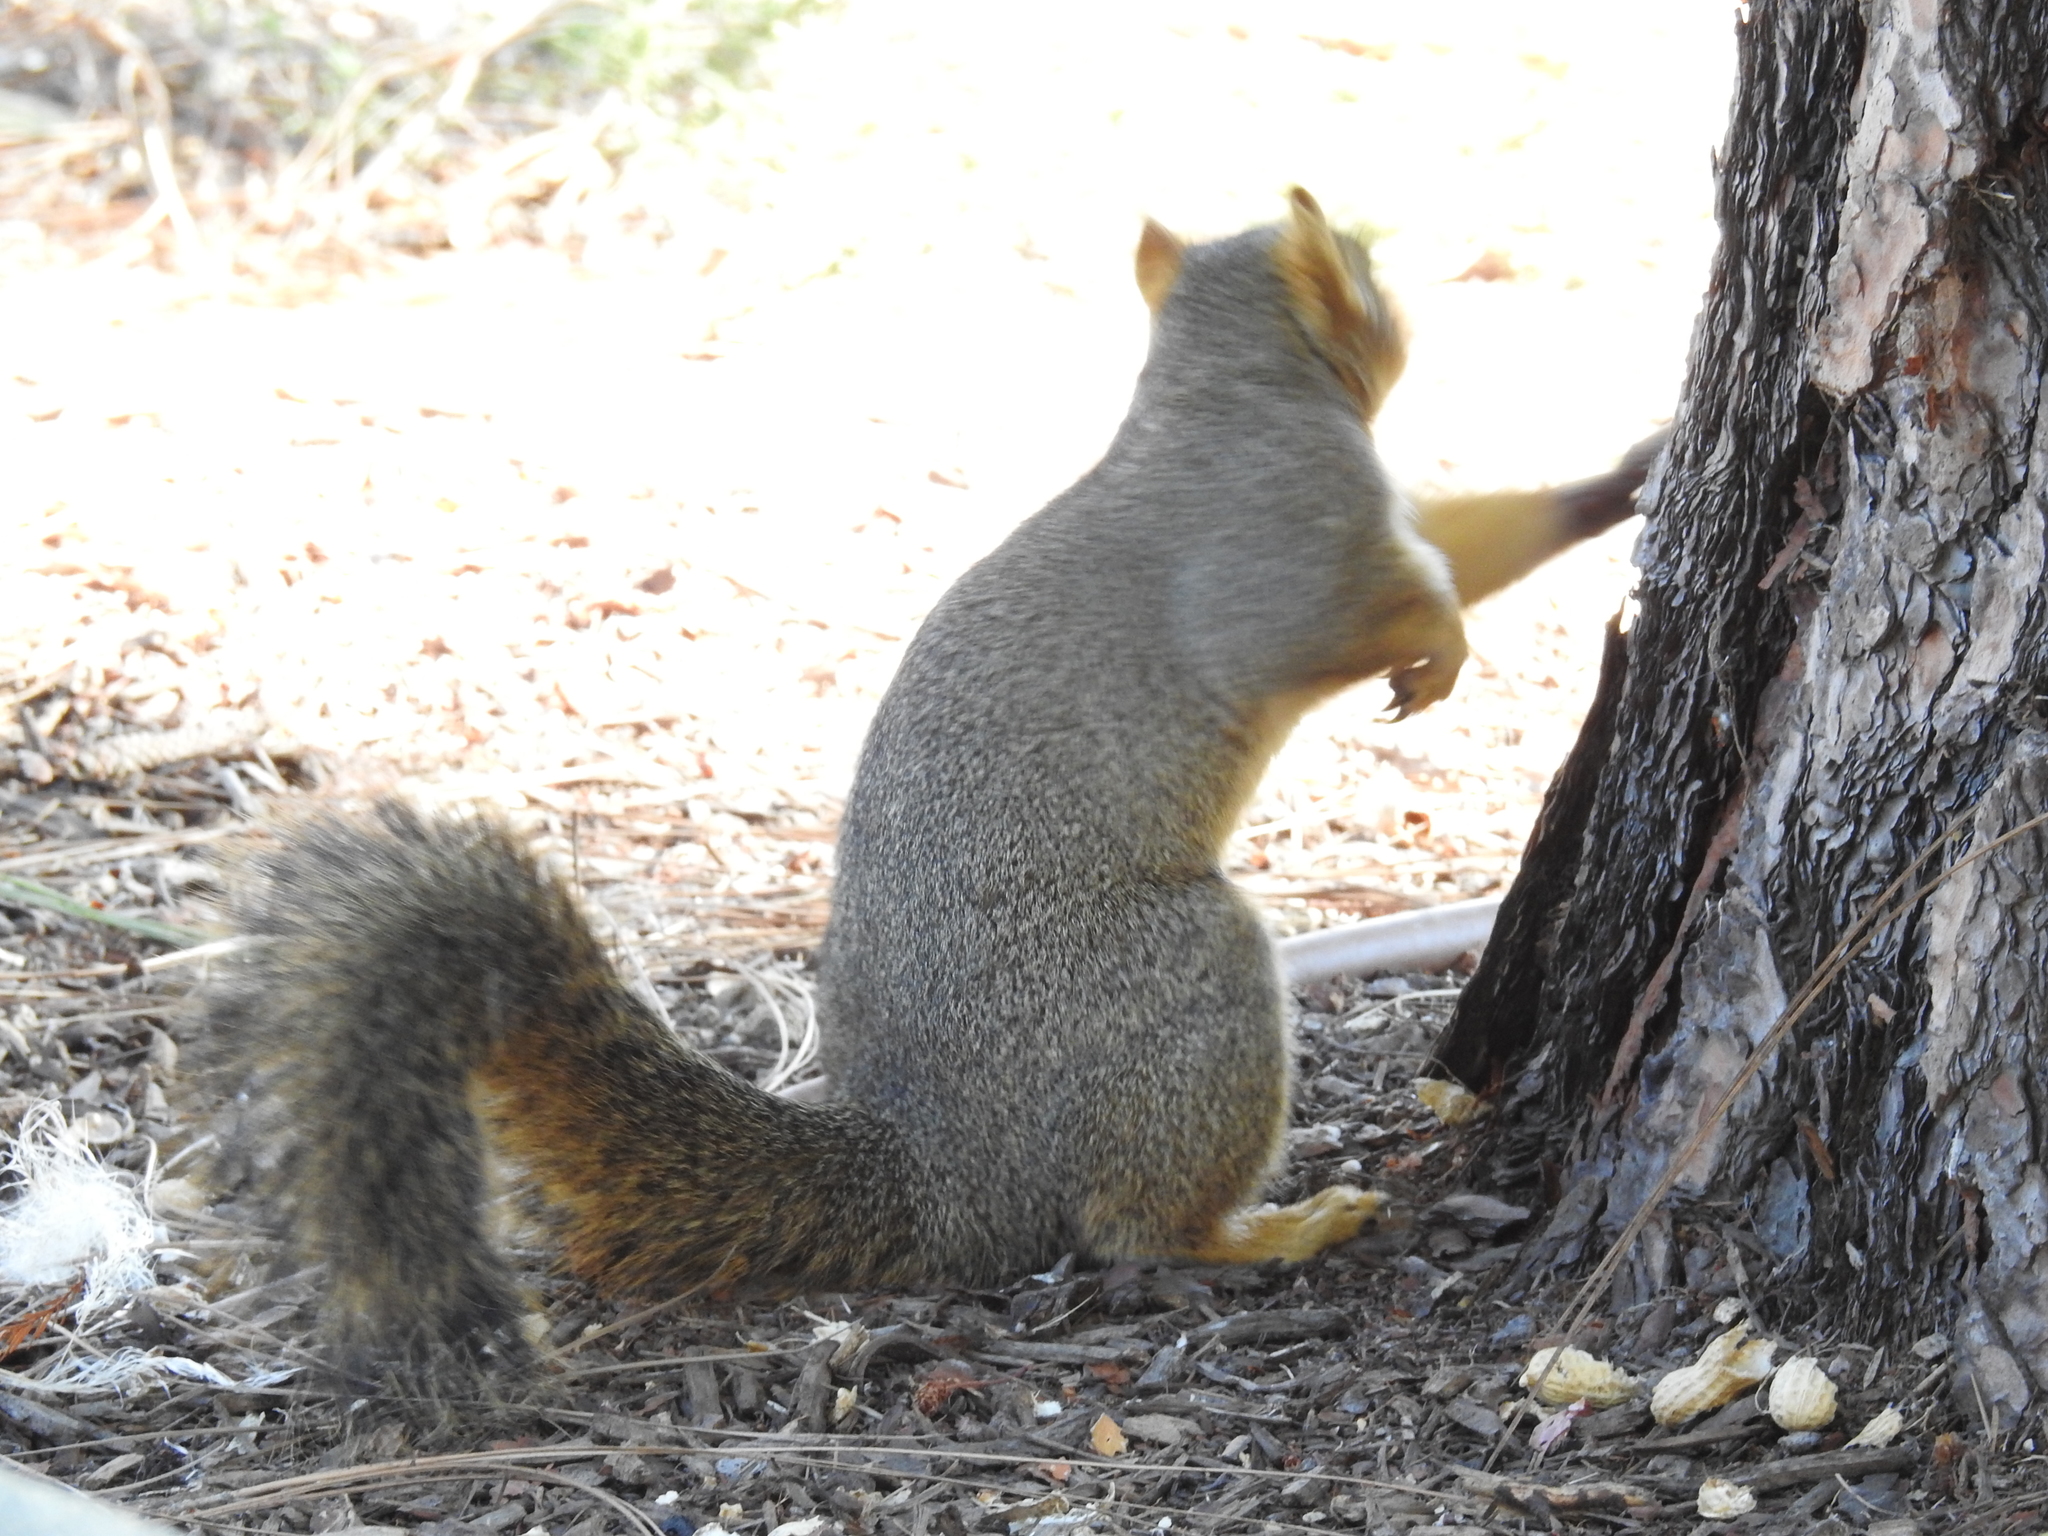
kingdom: Animalia
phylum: Chordata
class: Mammalia
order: Rodentia
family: Sciuridae
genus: Sciurus
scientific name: Sciurus niger
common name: Fox squirrel
